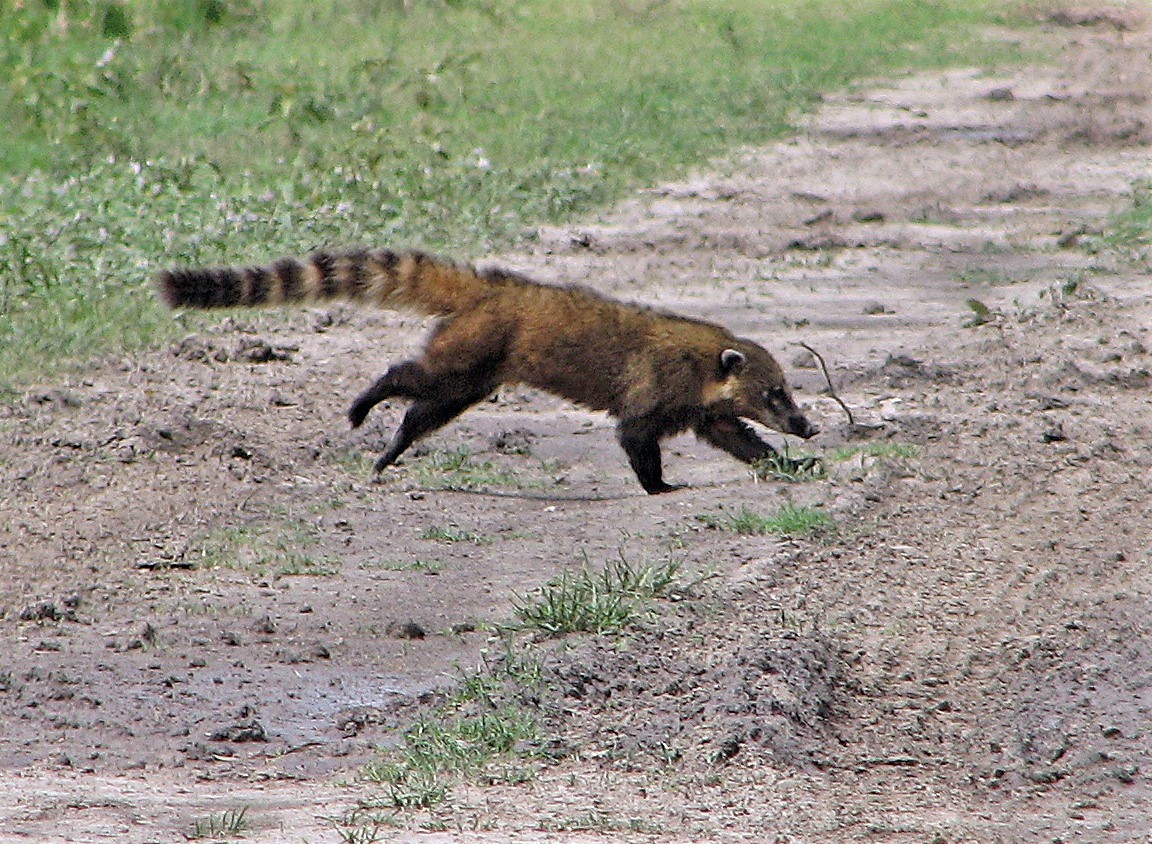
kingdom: Animalia
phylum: Chordata
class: Mammalia
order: Carnivora
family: Procyonidae
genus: Nasua
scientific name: Nasua nasua
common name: South american coati
